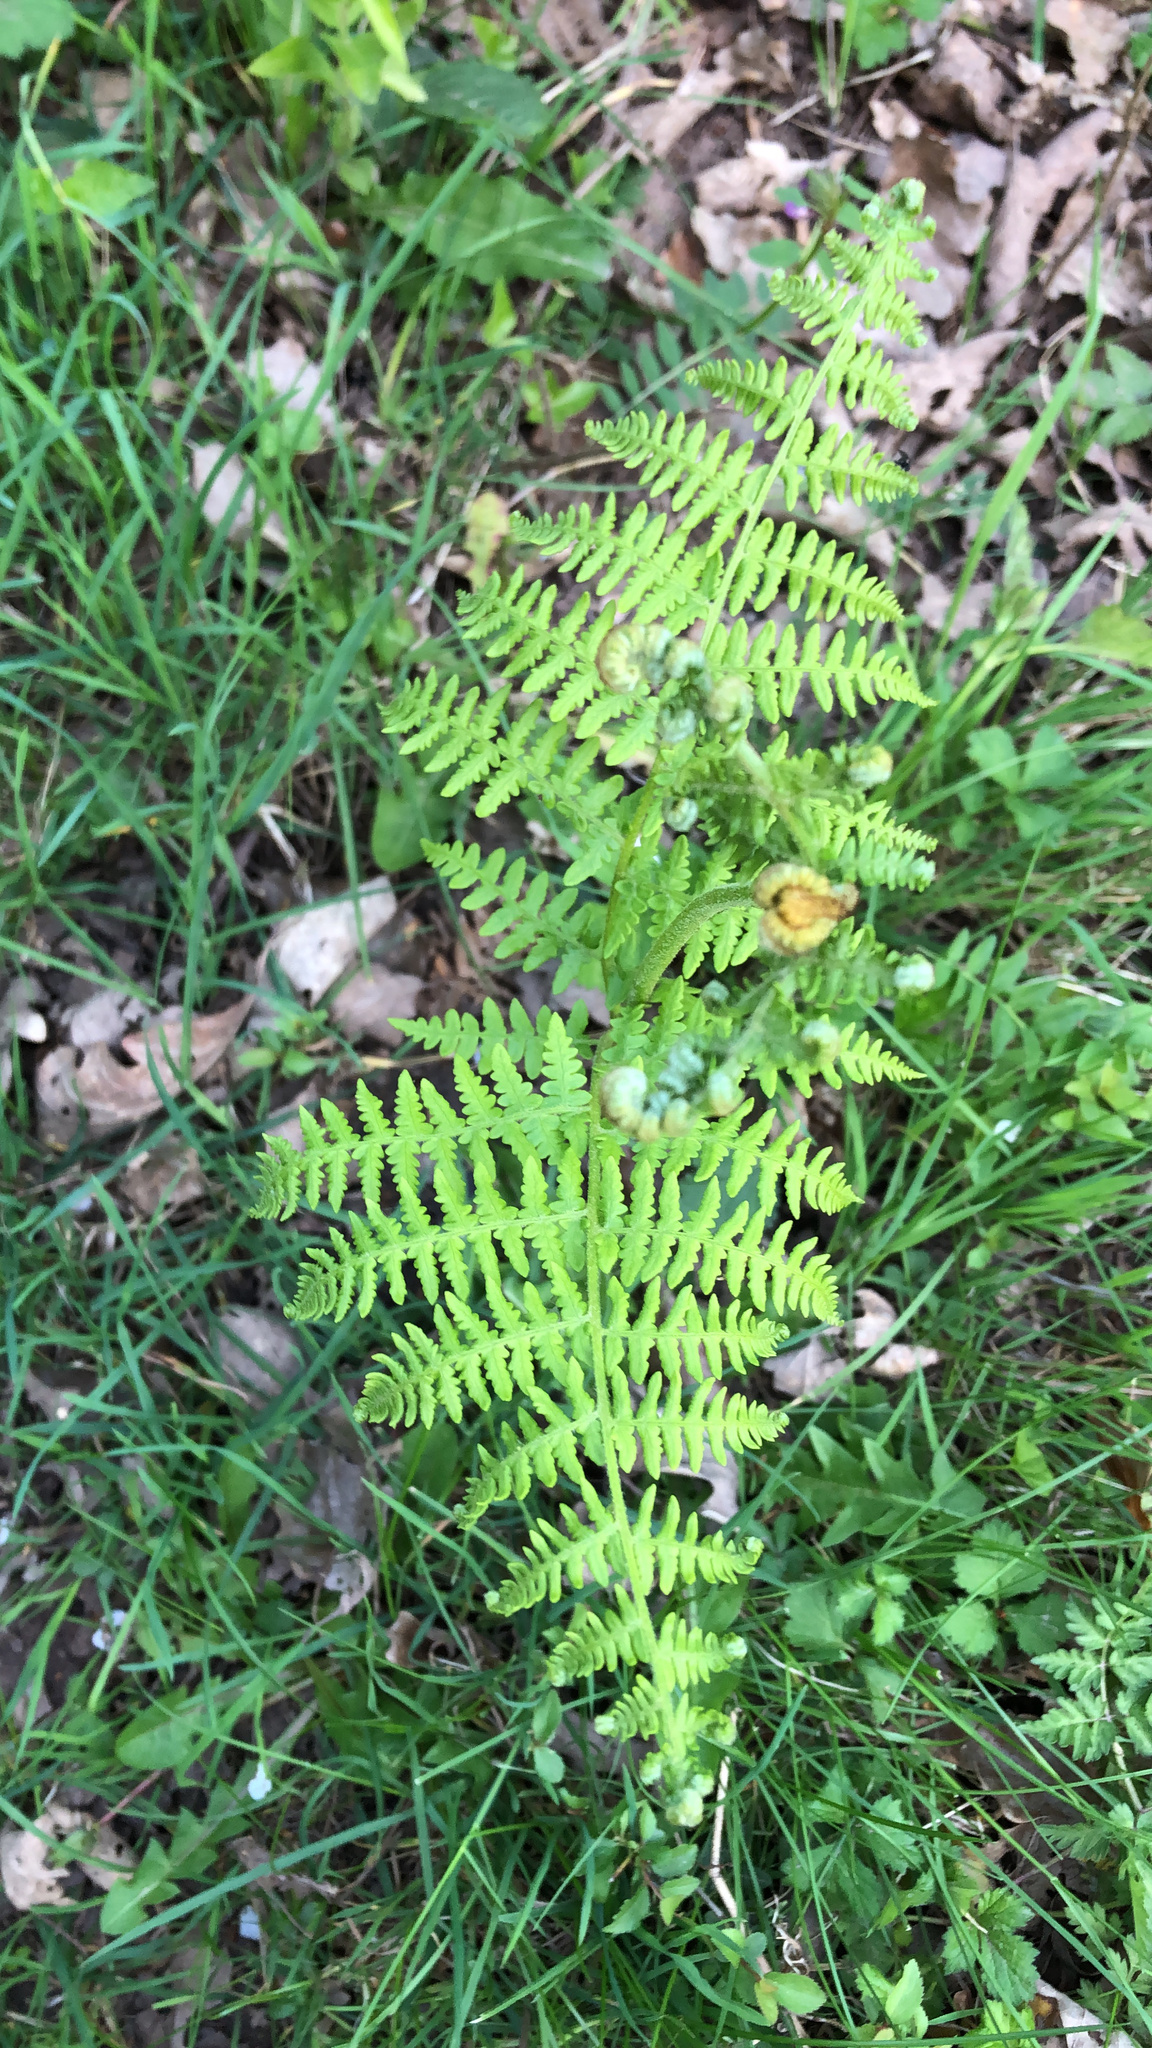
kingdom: Plantae
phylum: Tracheophyta
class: Polypodiopsida
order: Polypodiales
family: Dennstaedtiaceae
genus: Pteridium
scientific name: Pteridium aquilinum
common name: Bracken
